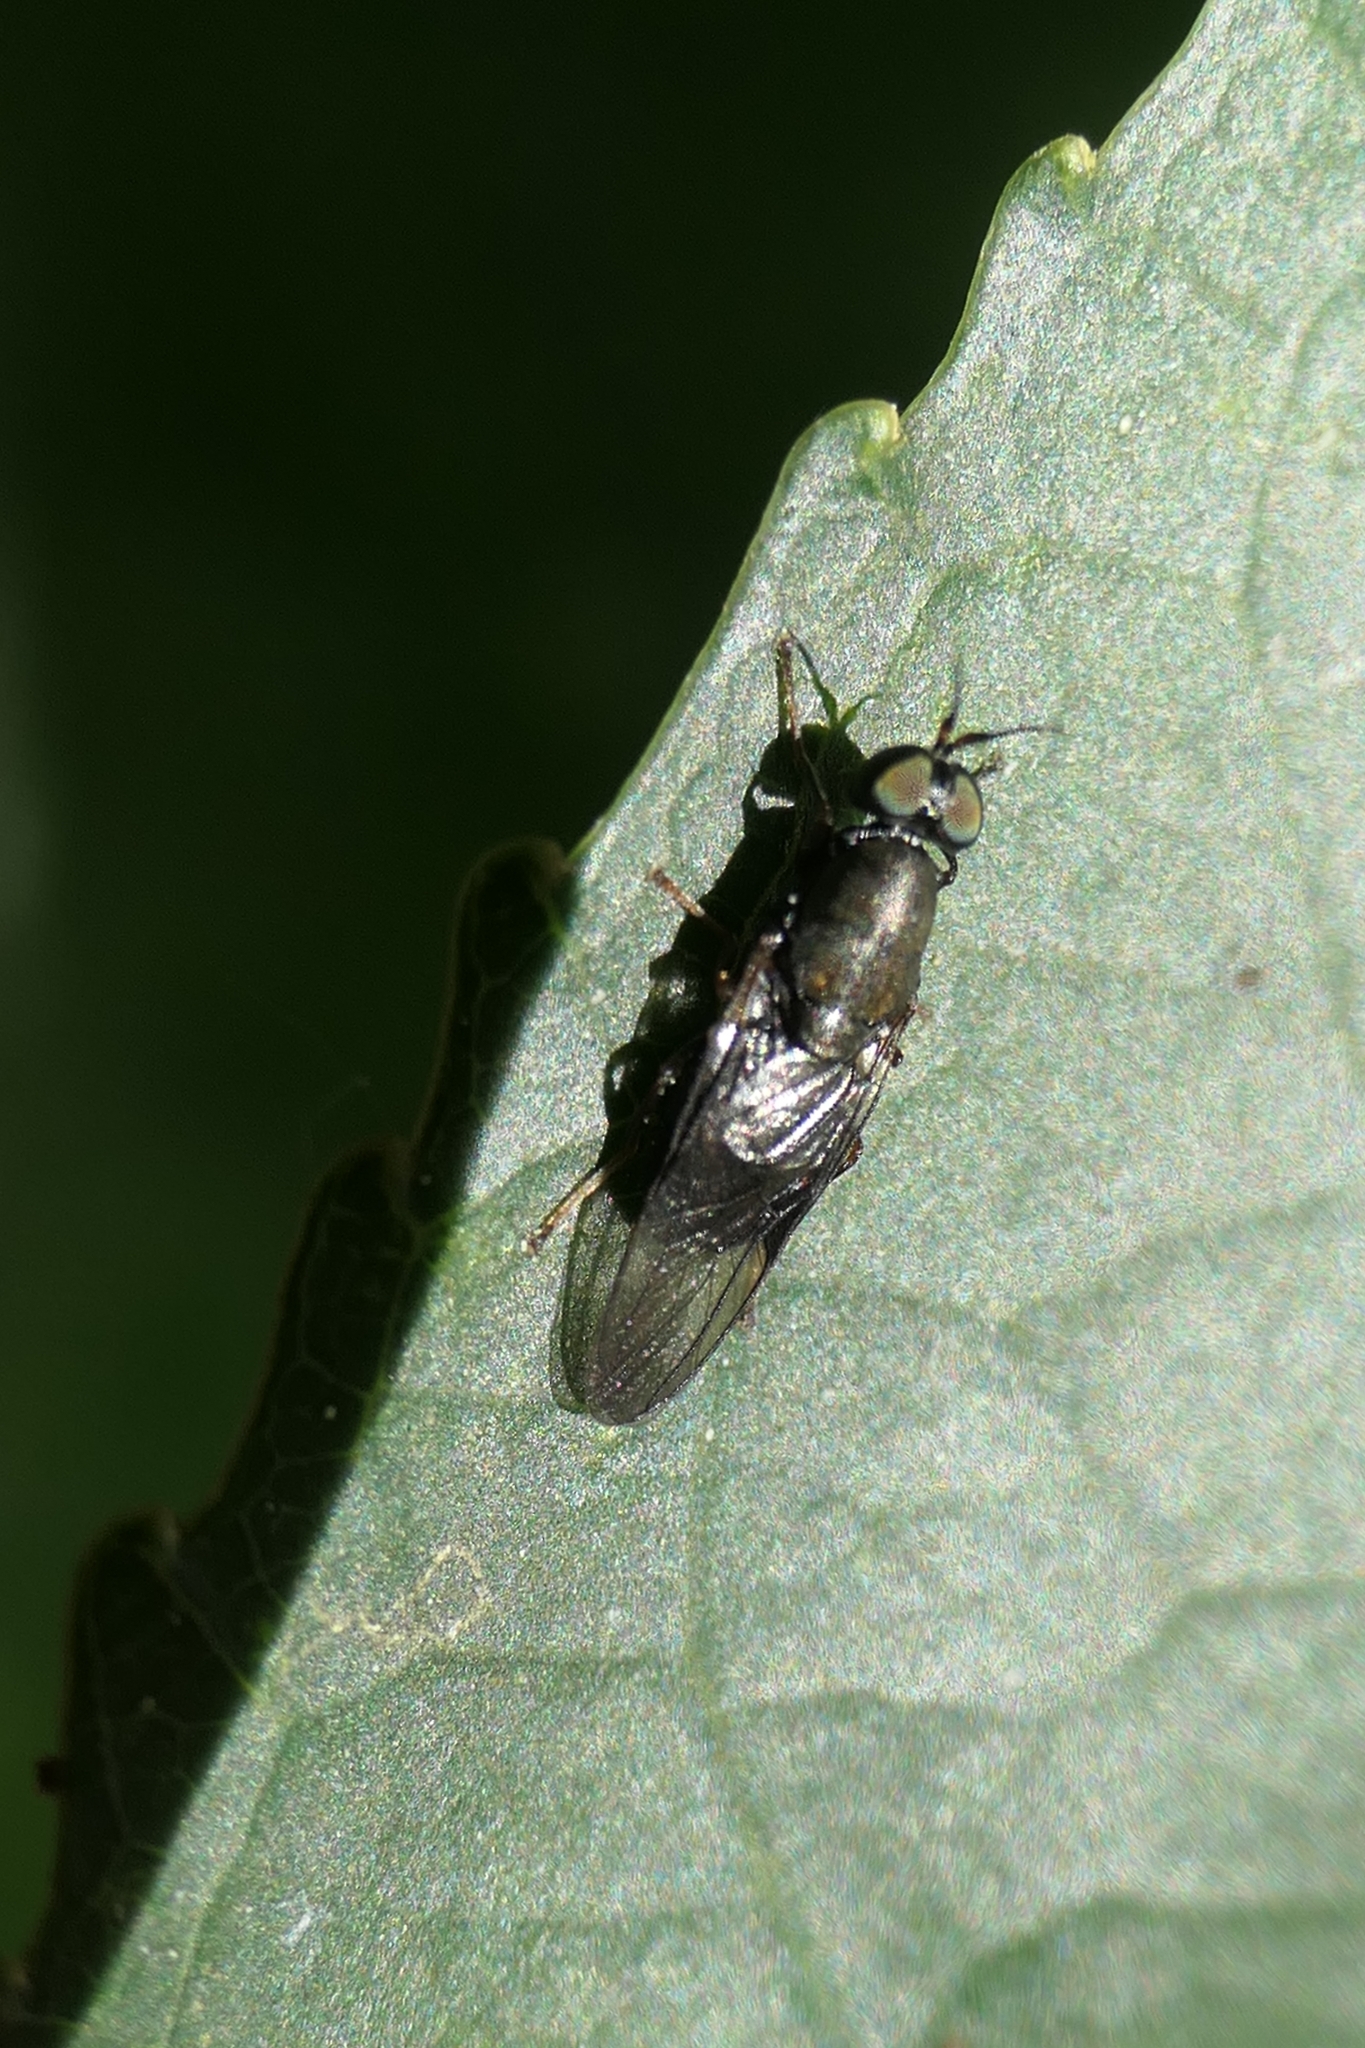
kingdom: Animalia
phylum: Arthropoda
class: Insecta
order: Diptera
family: Stratiomyidae
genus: Dysbiota
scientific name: Dysbiota peregrina
